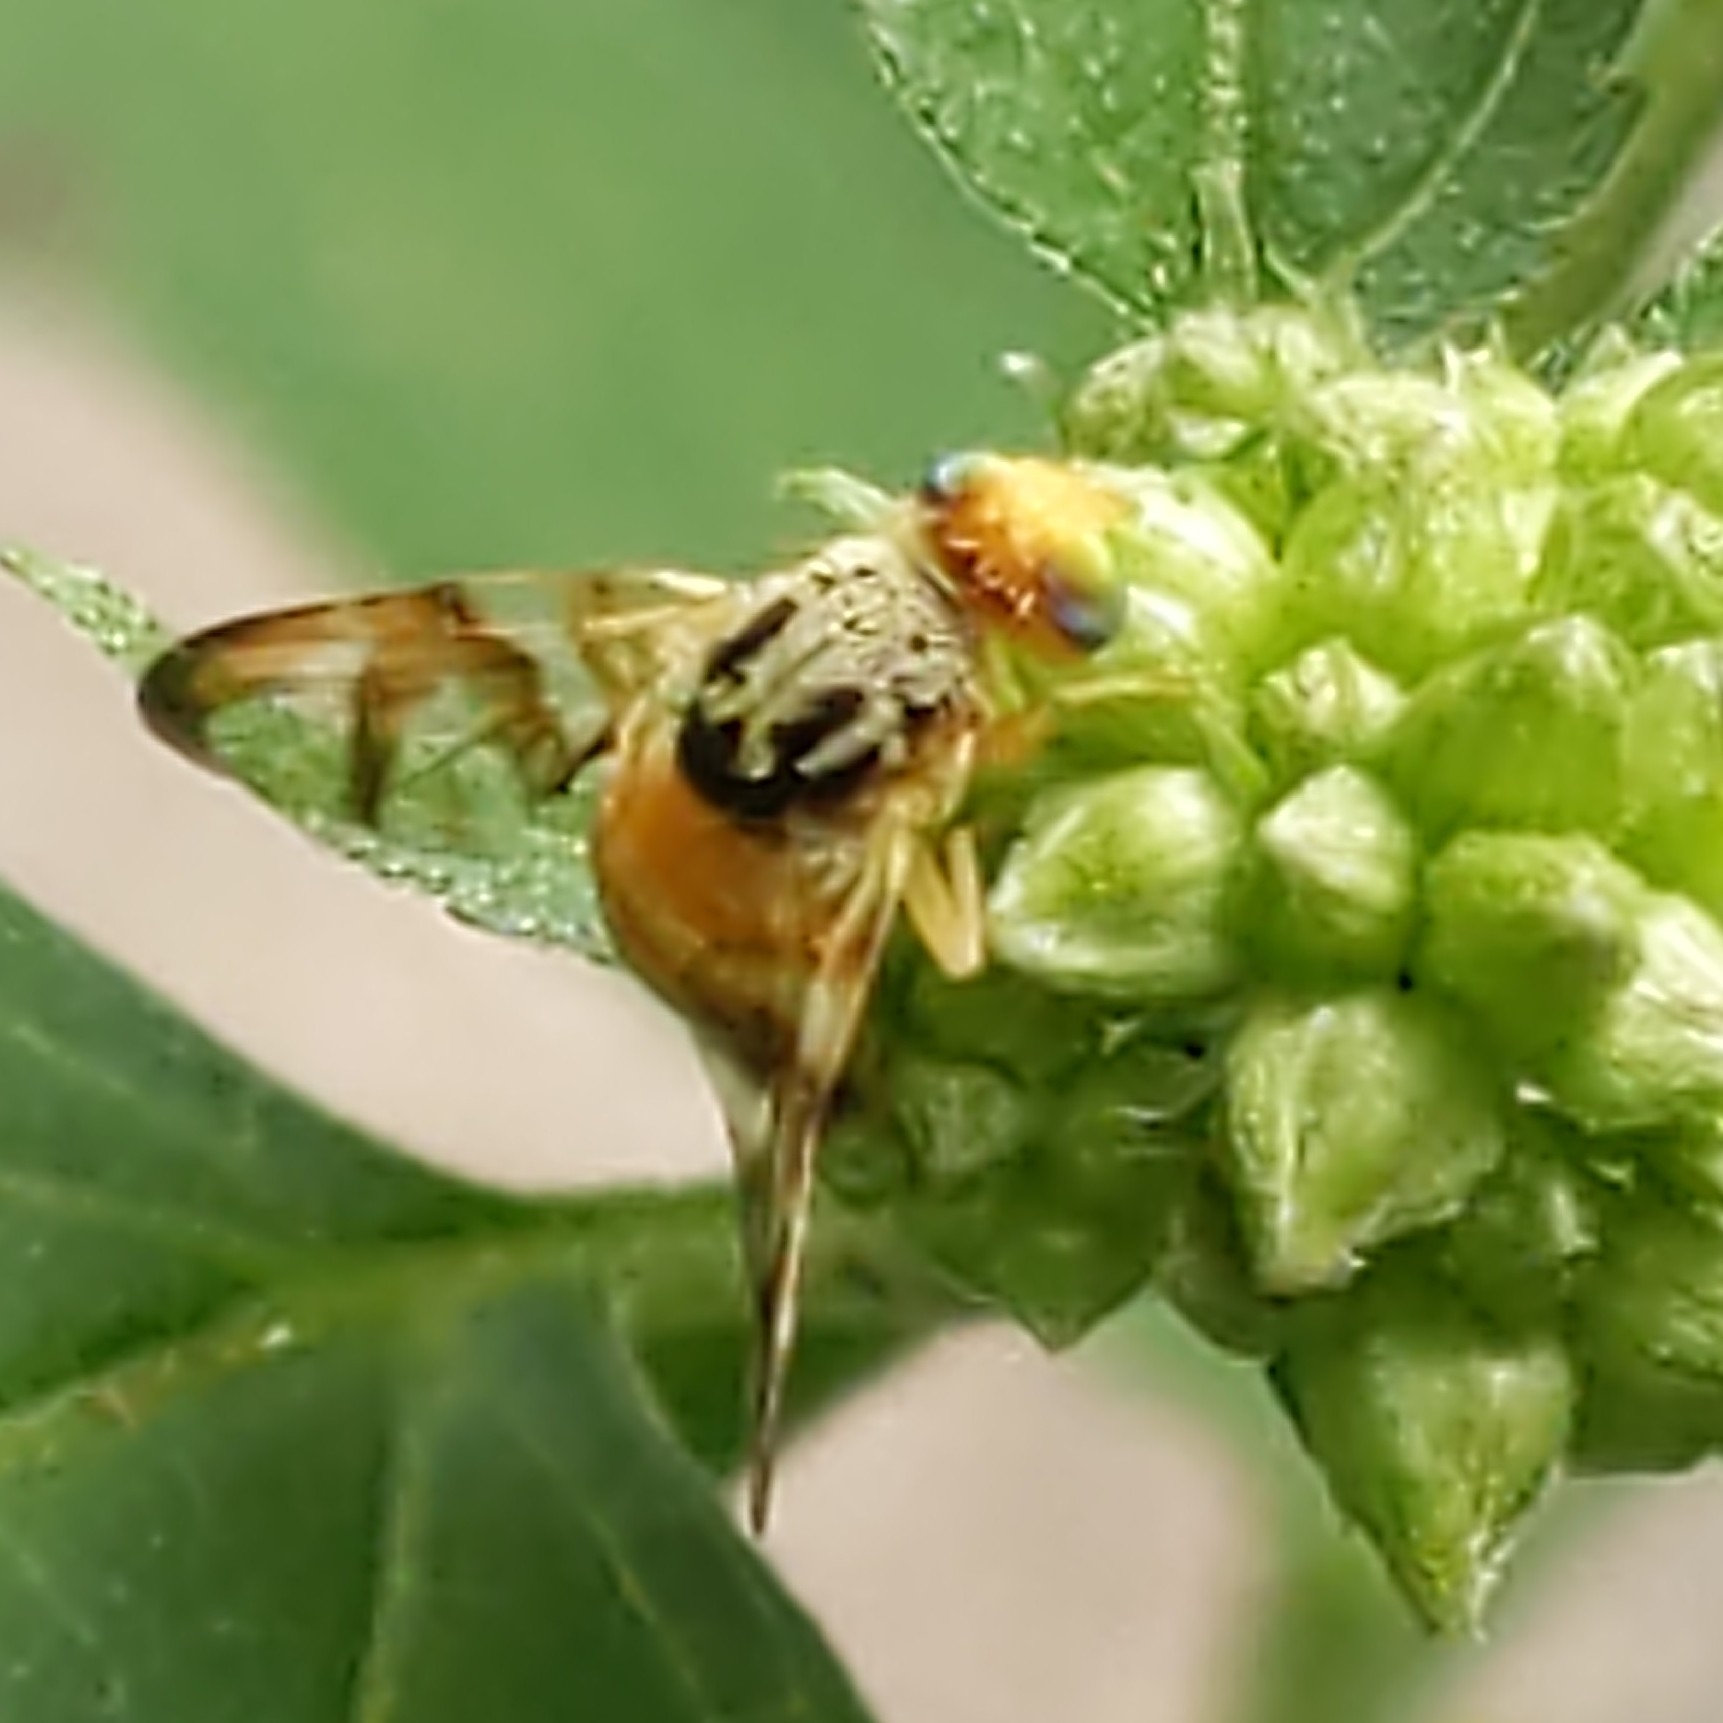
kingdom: Animalia
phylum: Arthropoda
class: Insecta
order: Diptera
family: Tephritidae
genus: Procecidocharoides
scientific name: Procecidocharoides penelope
